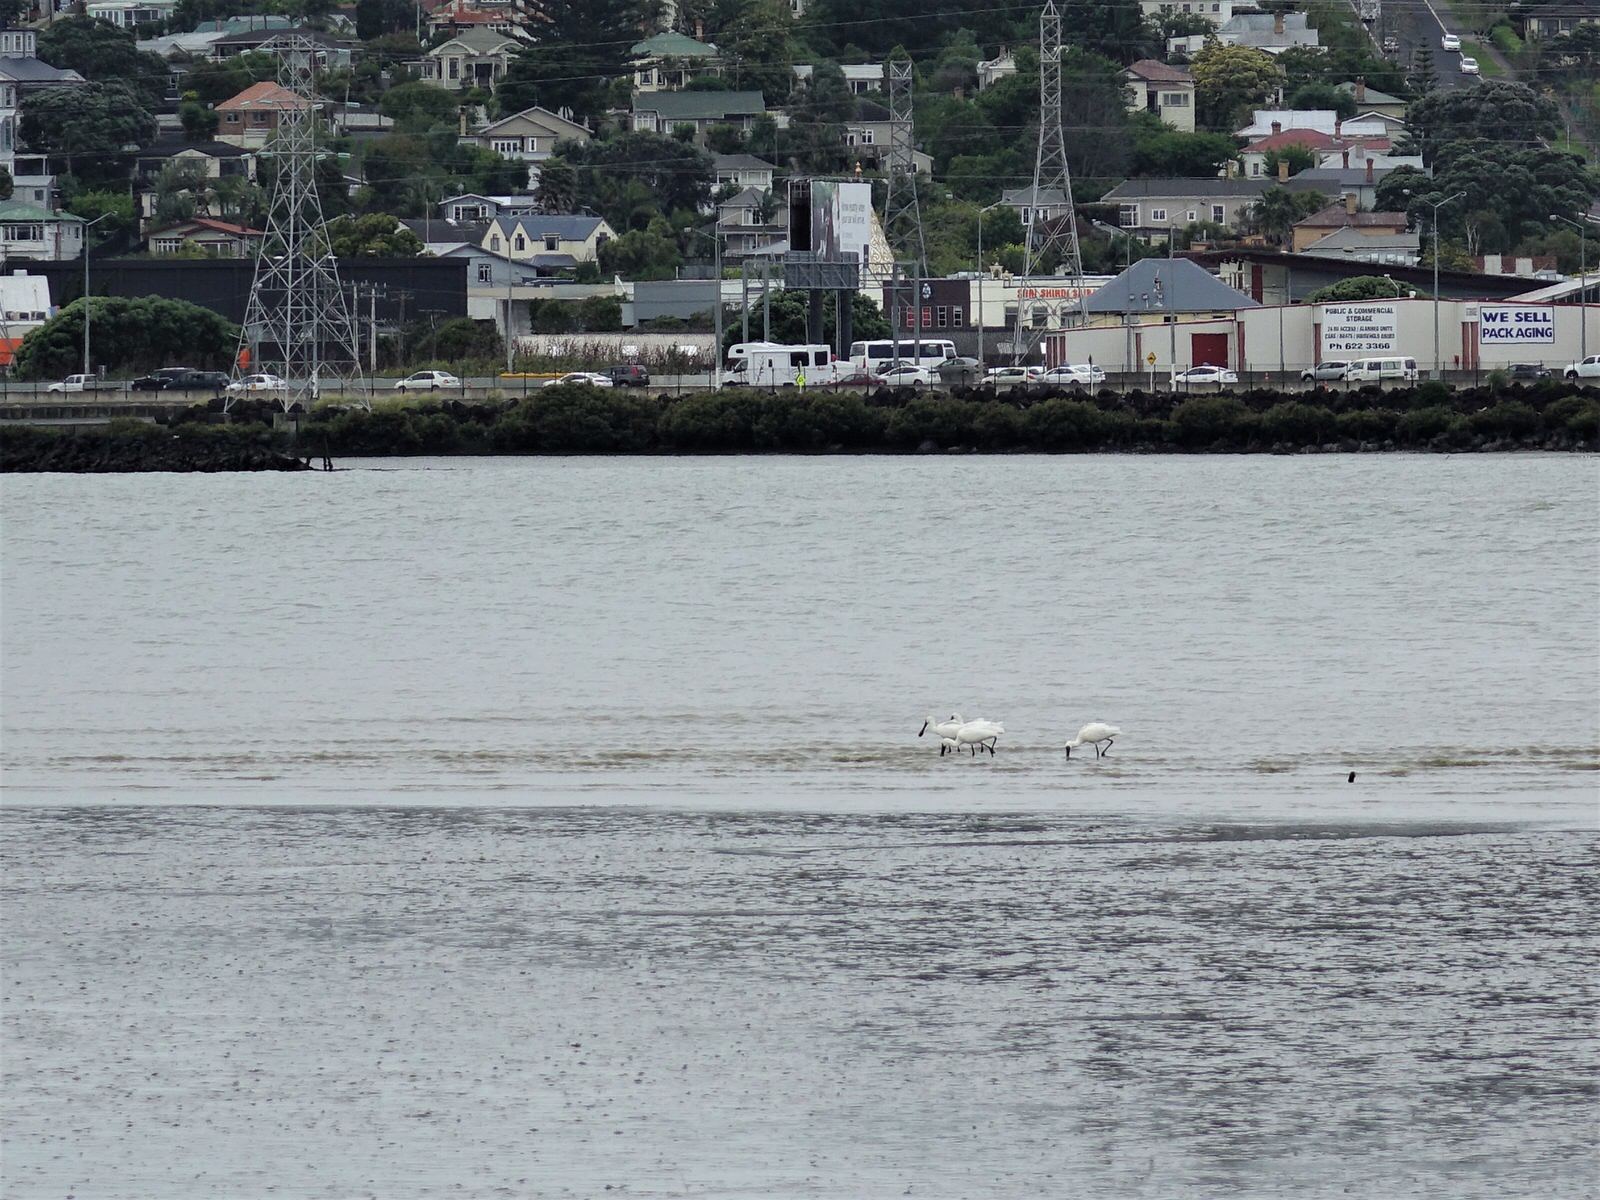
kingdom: Animalia
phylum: Chordata
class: Aves
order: Pelecaniformes
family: Threskiornithidae
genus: Platalea
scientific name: Platalea regia
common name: Royal spoonbill
